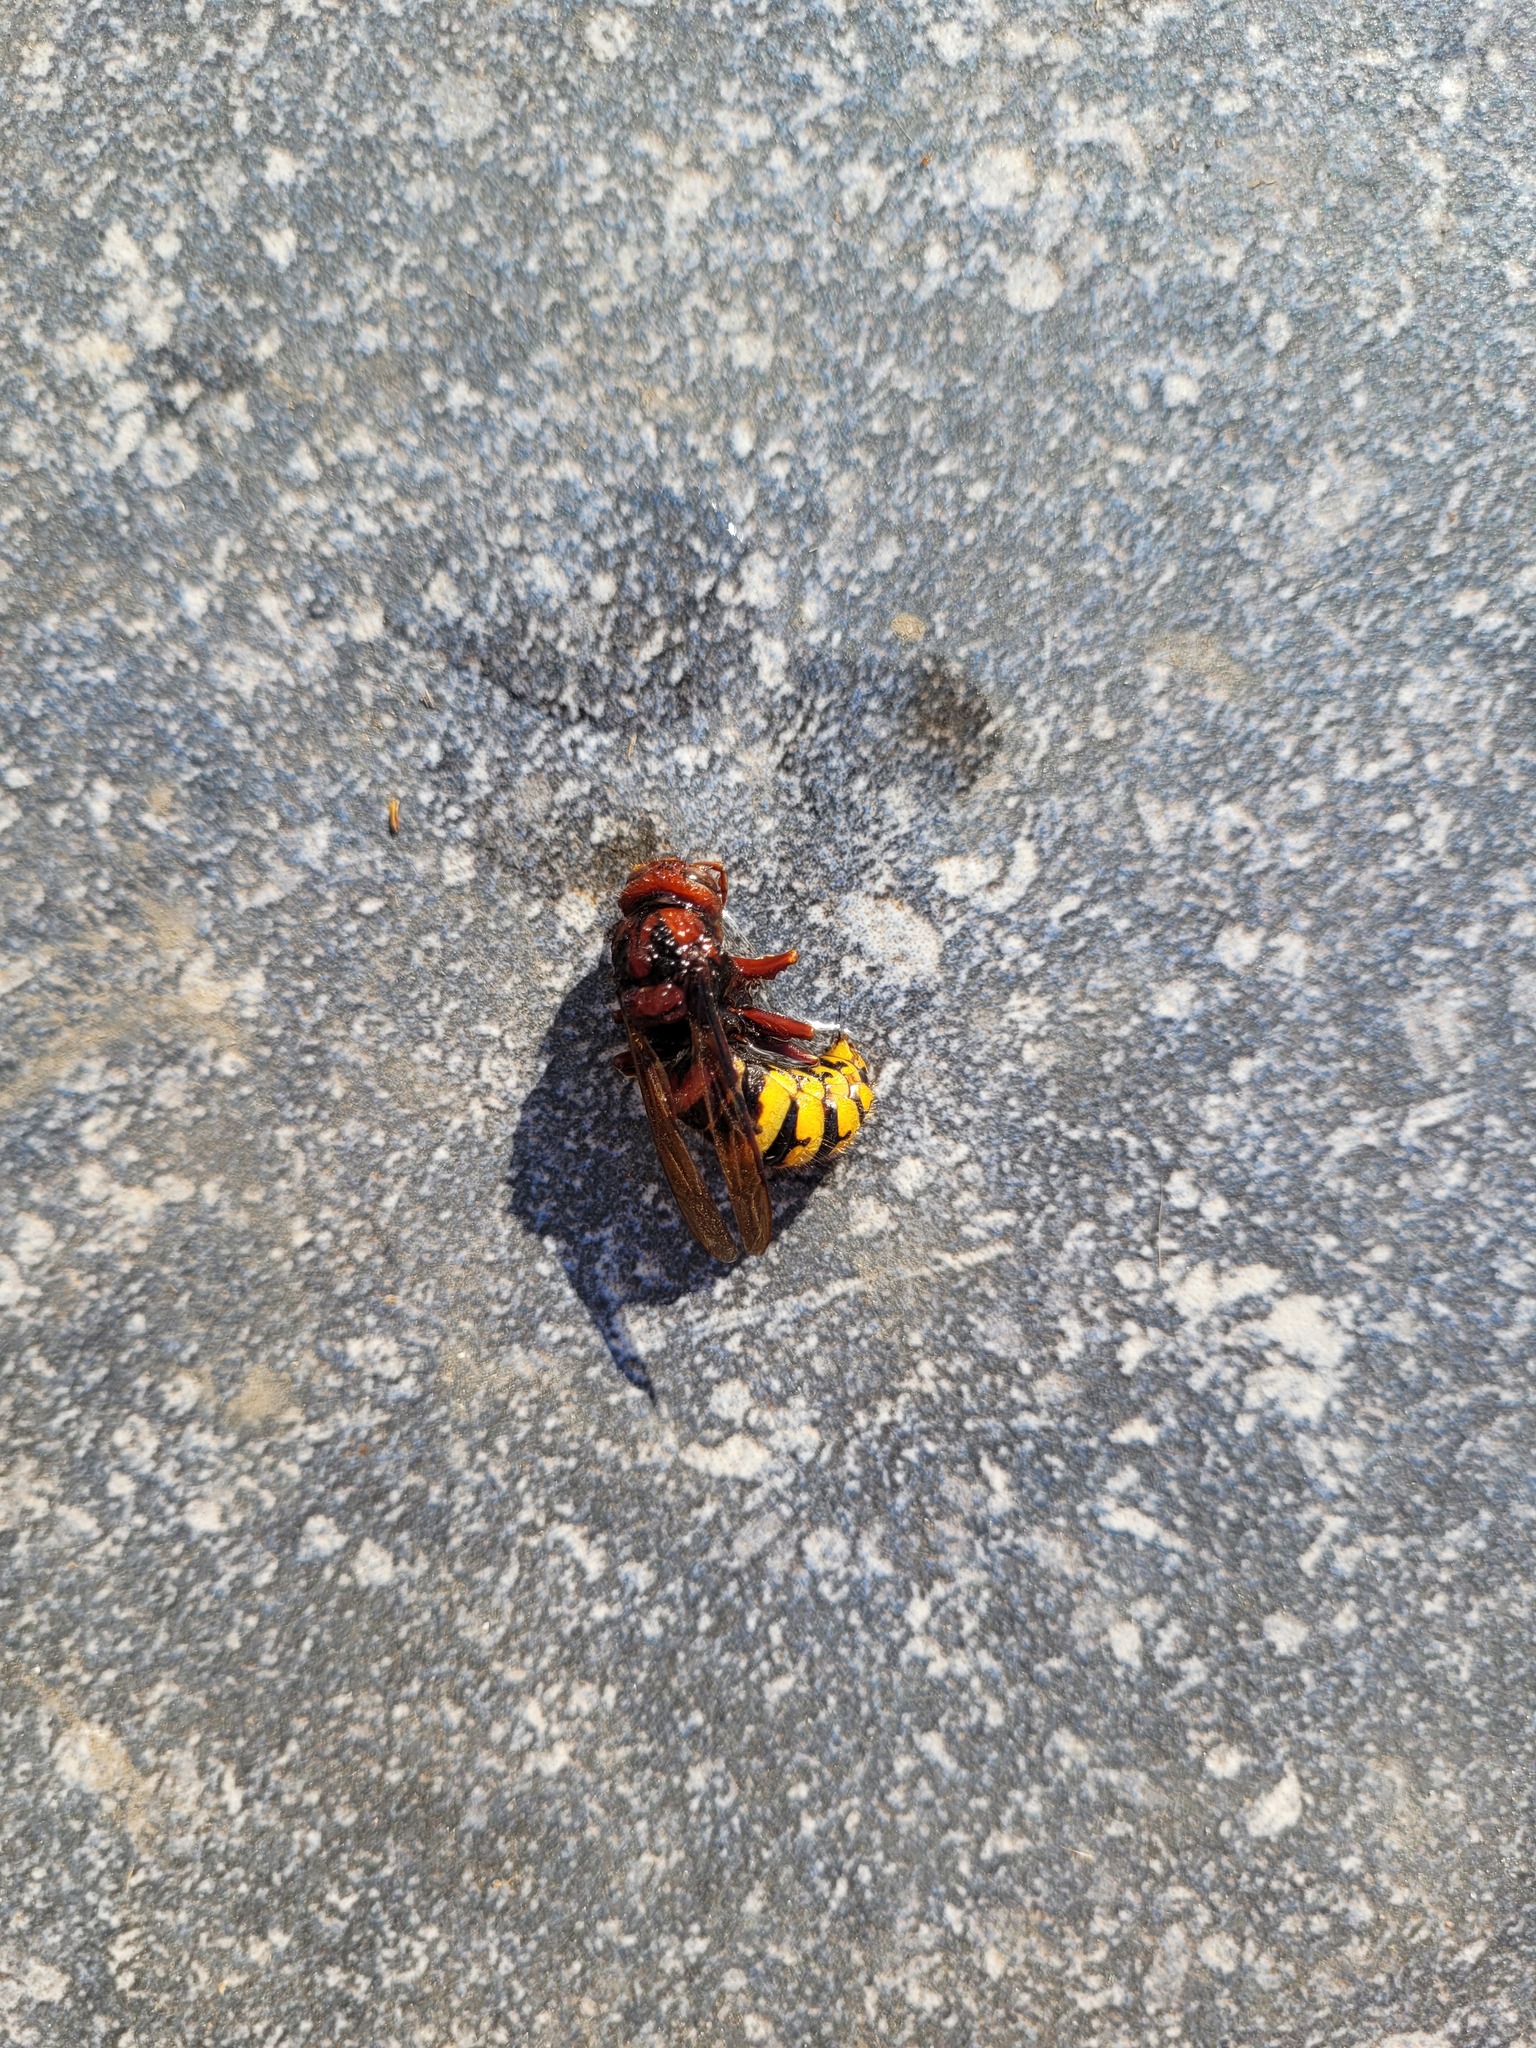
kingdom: Animalia
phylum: Arthropoda
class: Insecta
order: Hymenoptera
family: Vespidae
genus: Vespa
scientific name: Vespa crabro
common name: Hornet
